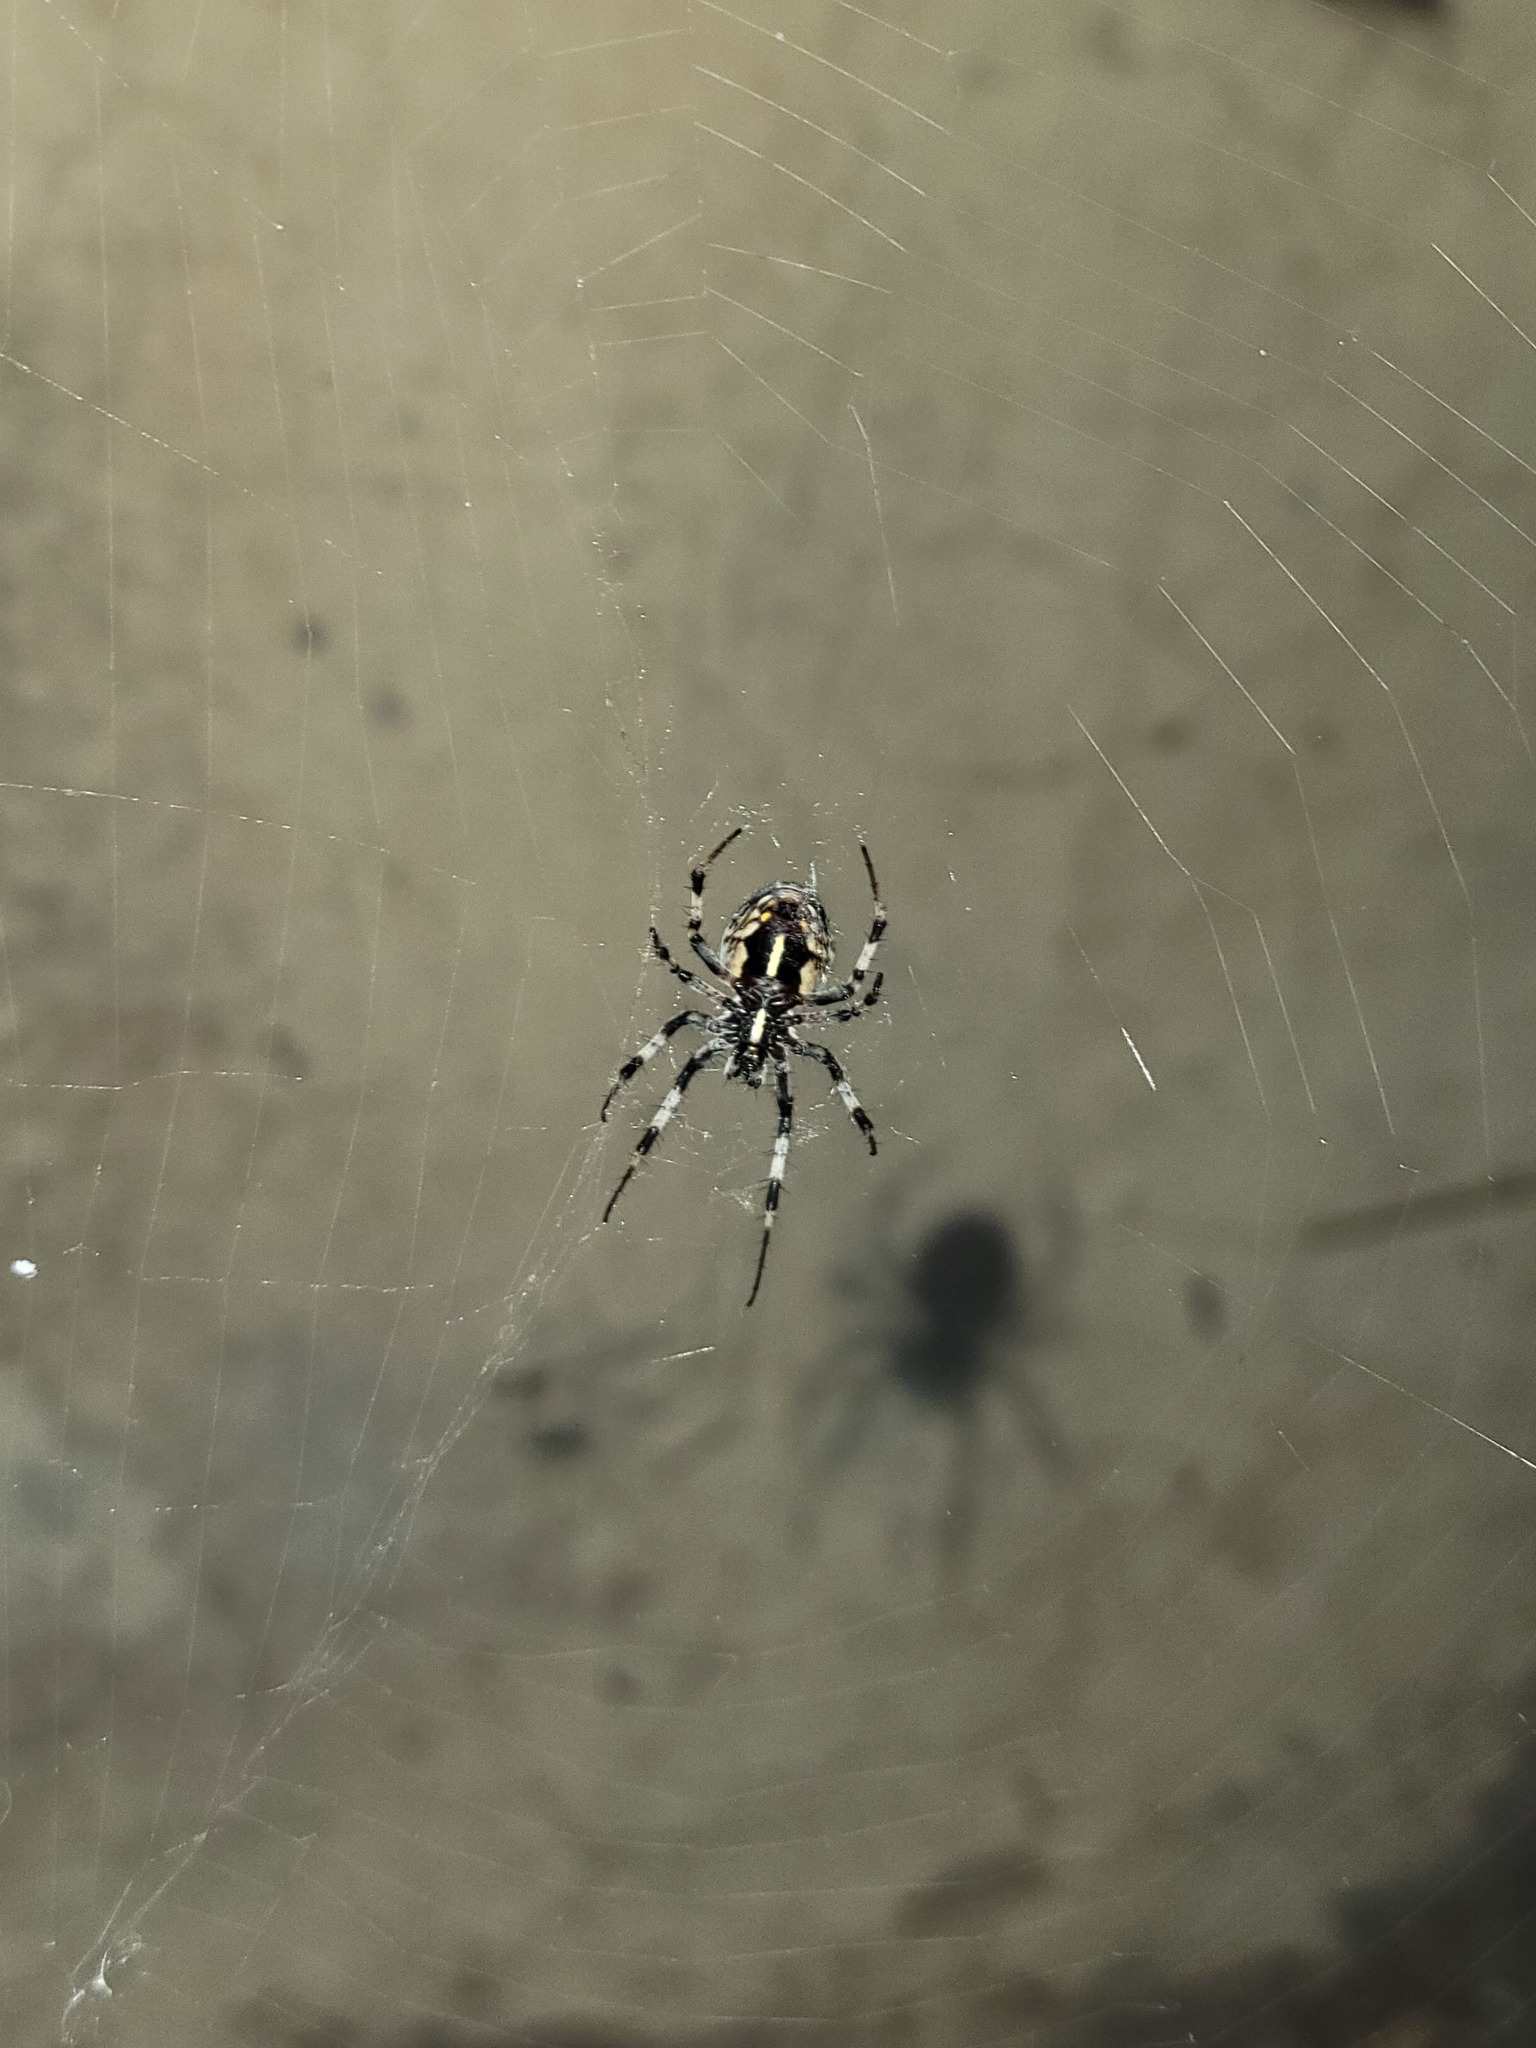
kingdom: Animalia
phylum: Arthropoda
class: Arachnida
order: Araneae
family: Araneidae
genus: Metepeira
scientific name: Metepeira
